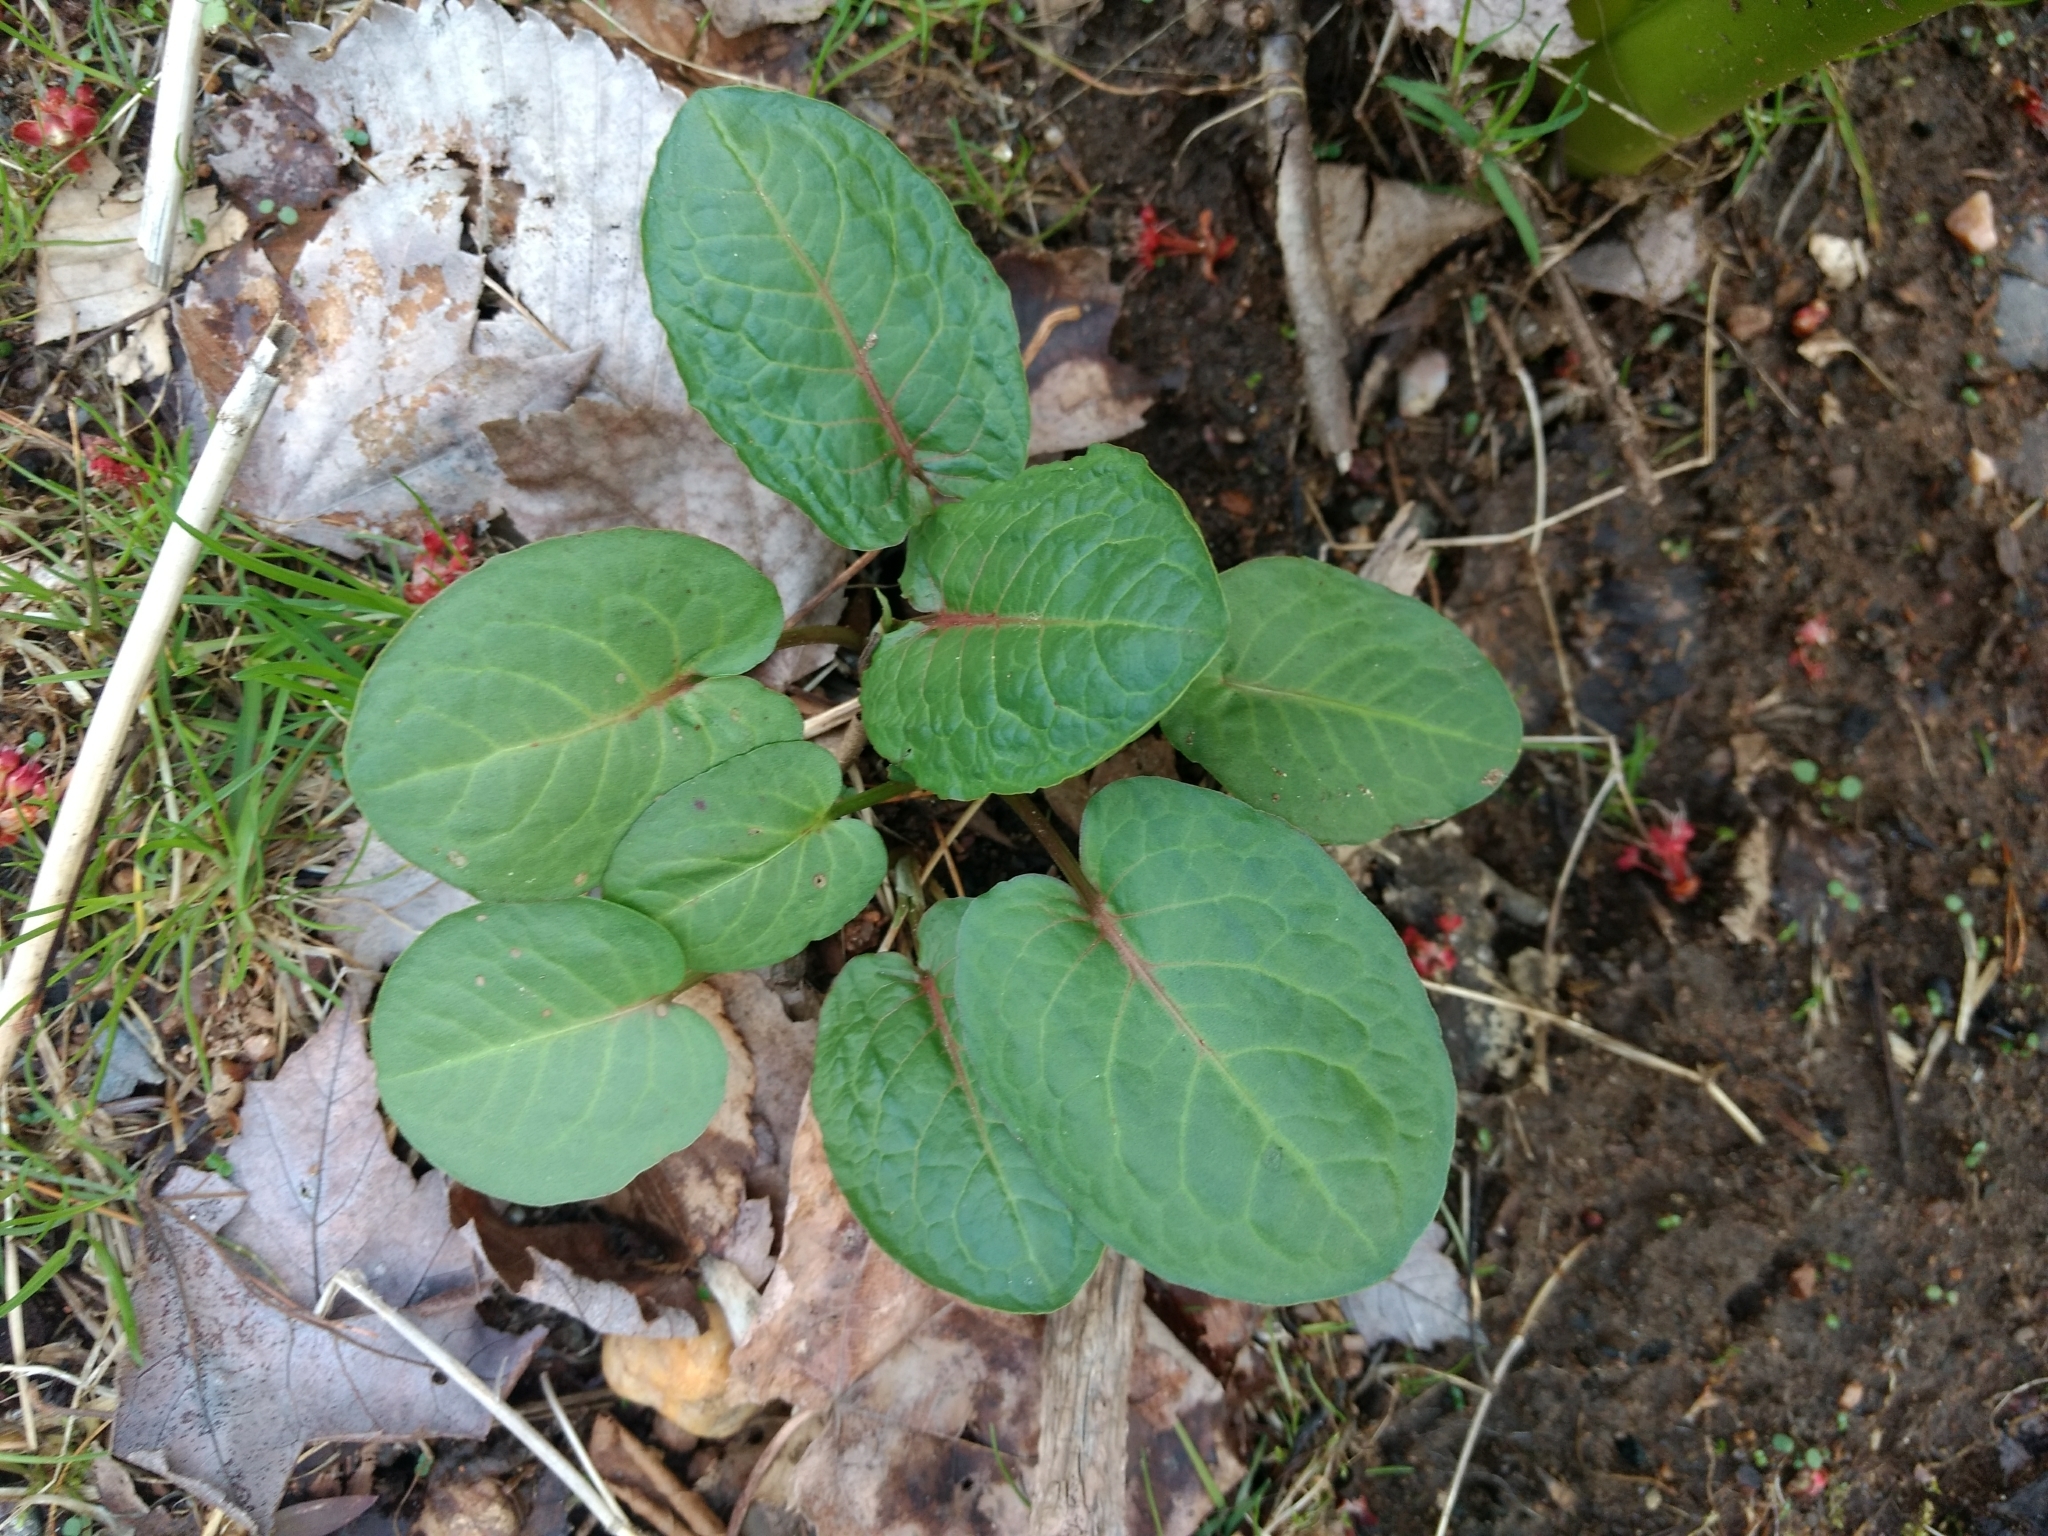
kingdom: Plantae
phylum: Tracheophyta
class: Magnoliopsida
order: Caryophyllales
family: Polygonaceae
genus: Rumex
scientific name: Rumex obtusifolius
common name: Bitter dock
